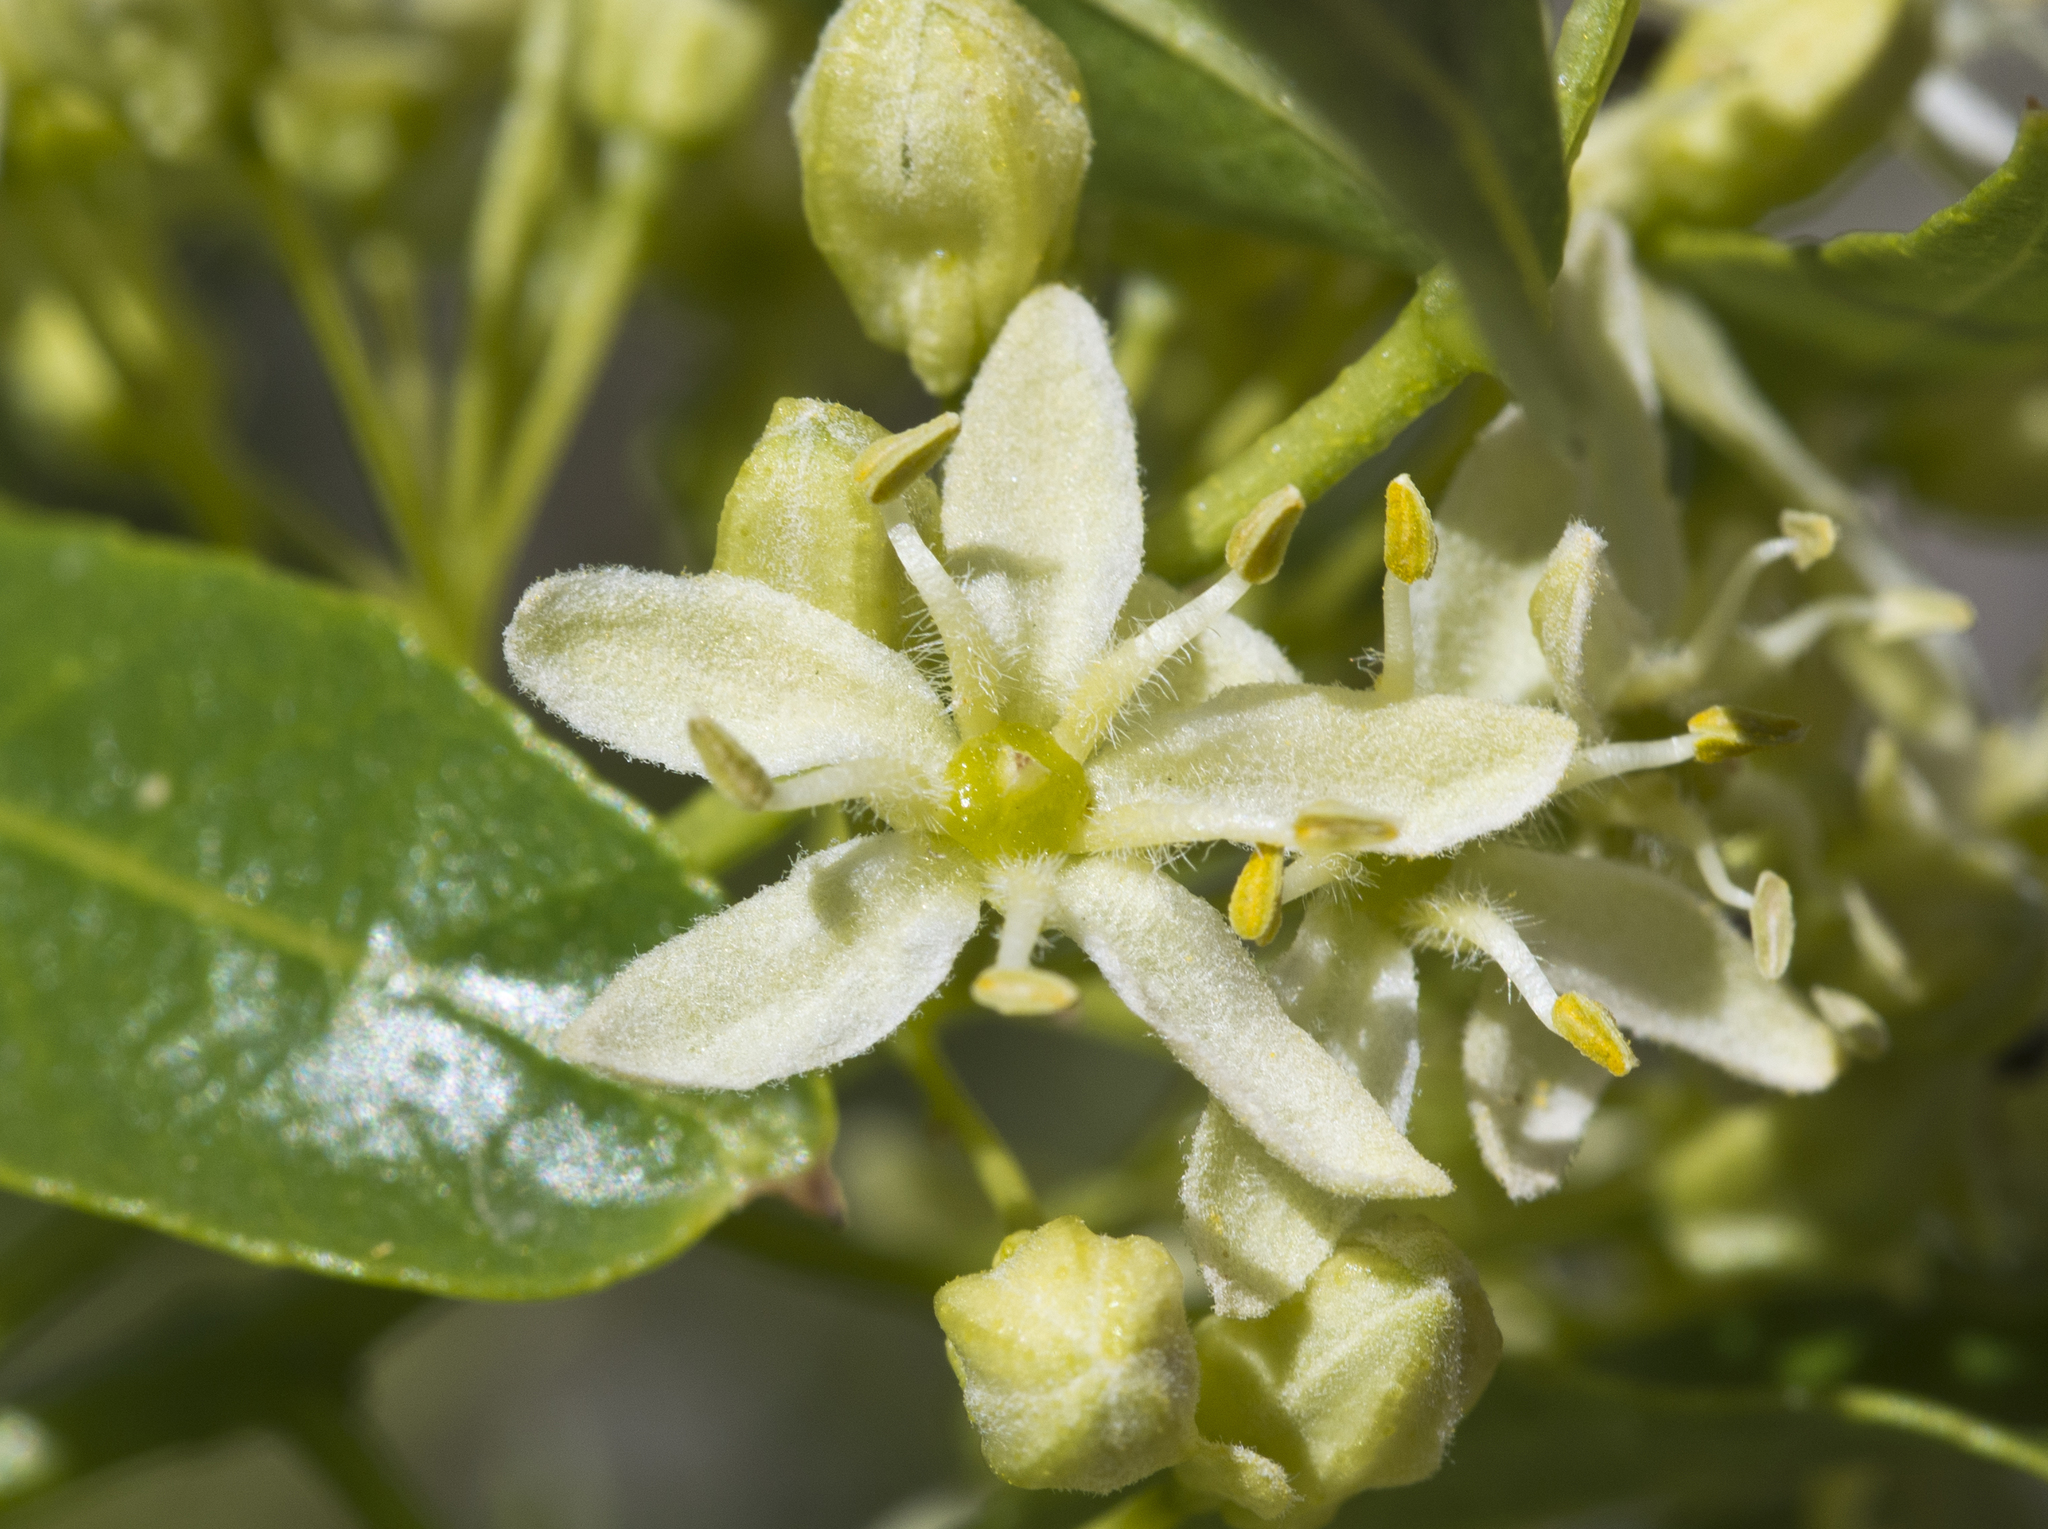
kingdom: Plantae
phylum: Tracheophyta
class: Magnoliopsida
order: Sapindales
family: Rutaceae
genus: Ptelea
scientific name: Ptelea trifoliata
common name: Common hop-tree
